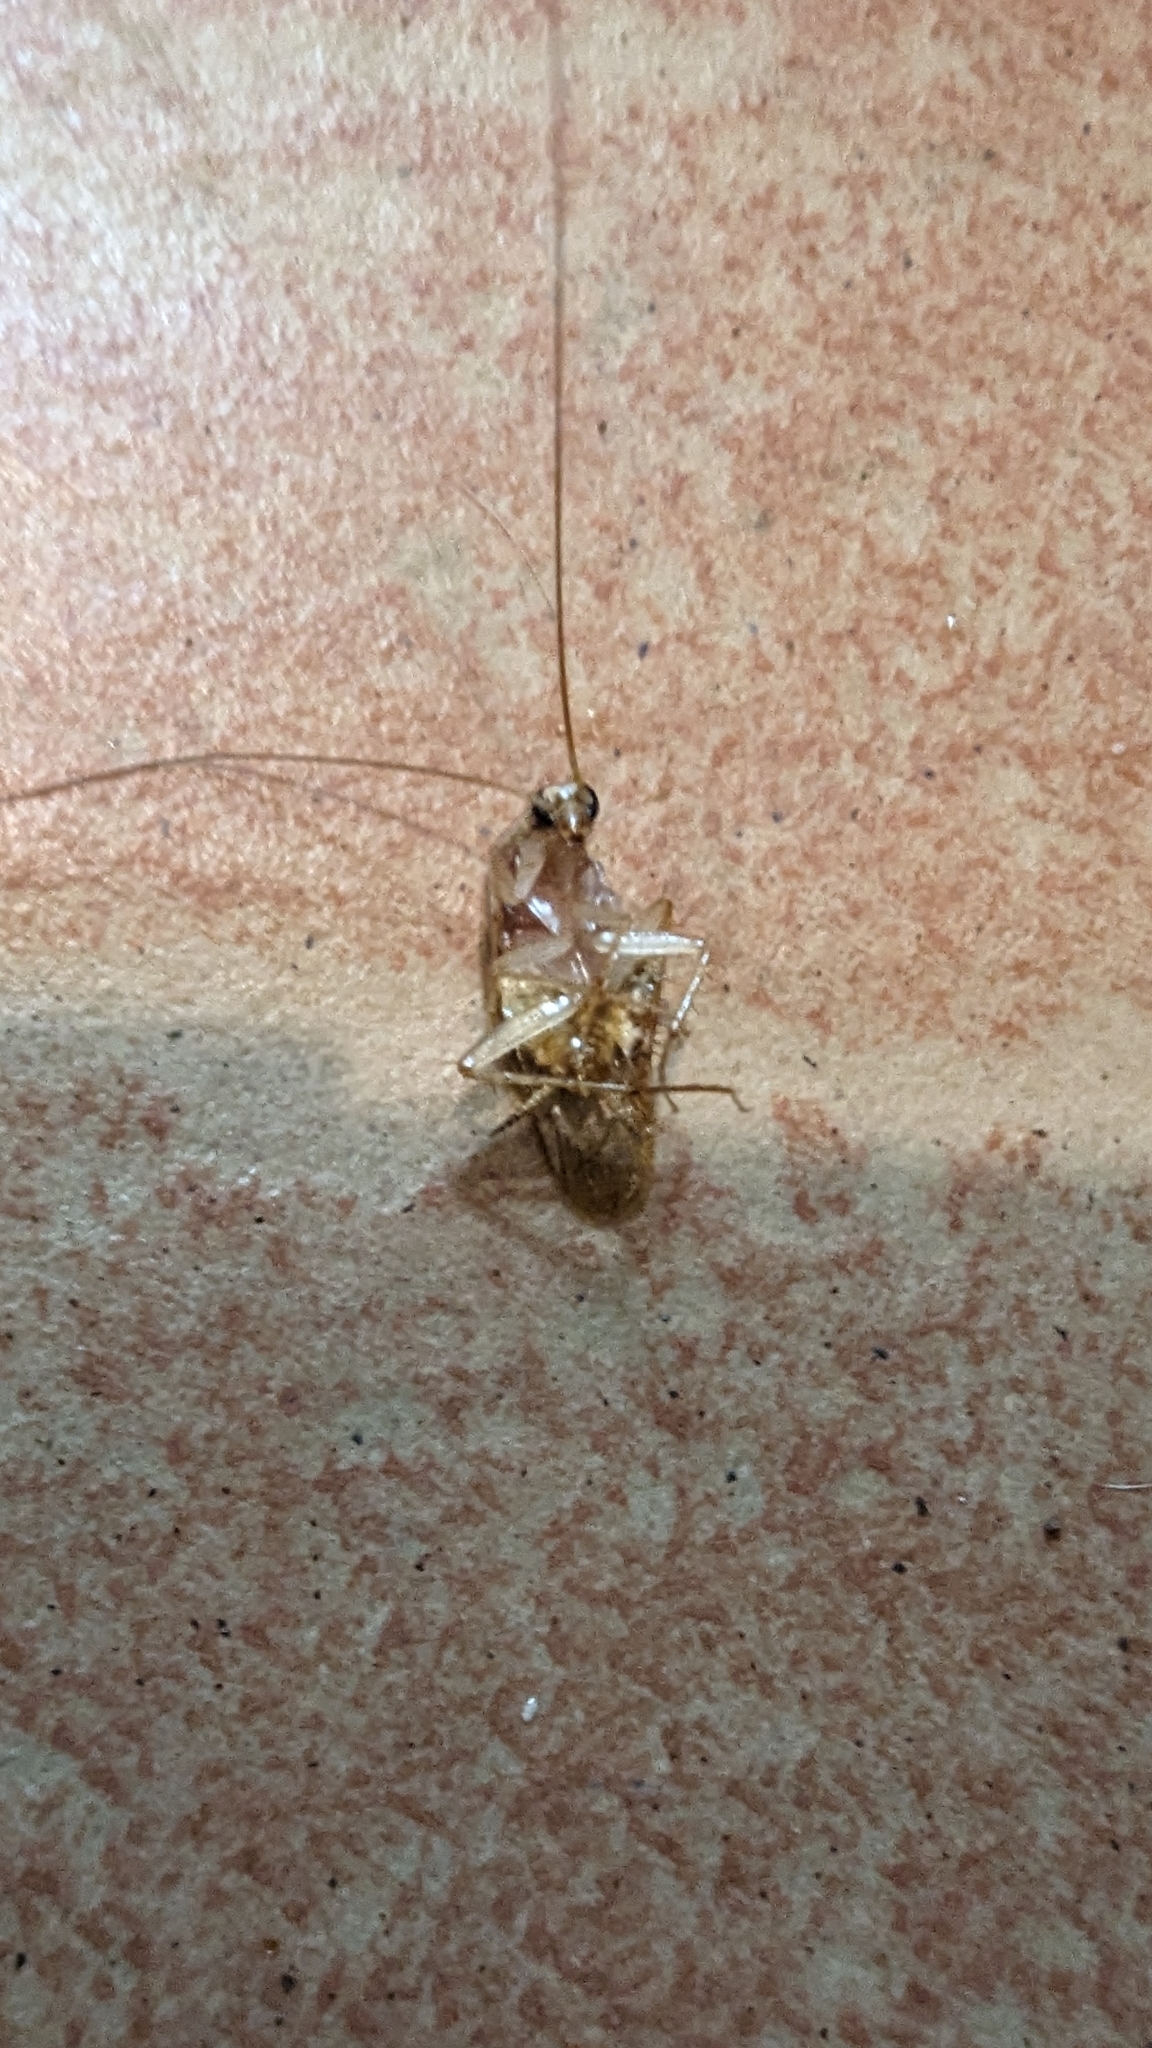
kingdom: Animalia
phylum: Arthropoda
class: Insecta
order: Blattodea
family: Ectobiidae
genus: Supella
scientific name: Supella longipalpa
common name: Brown-banded cockroach
